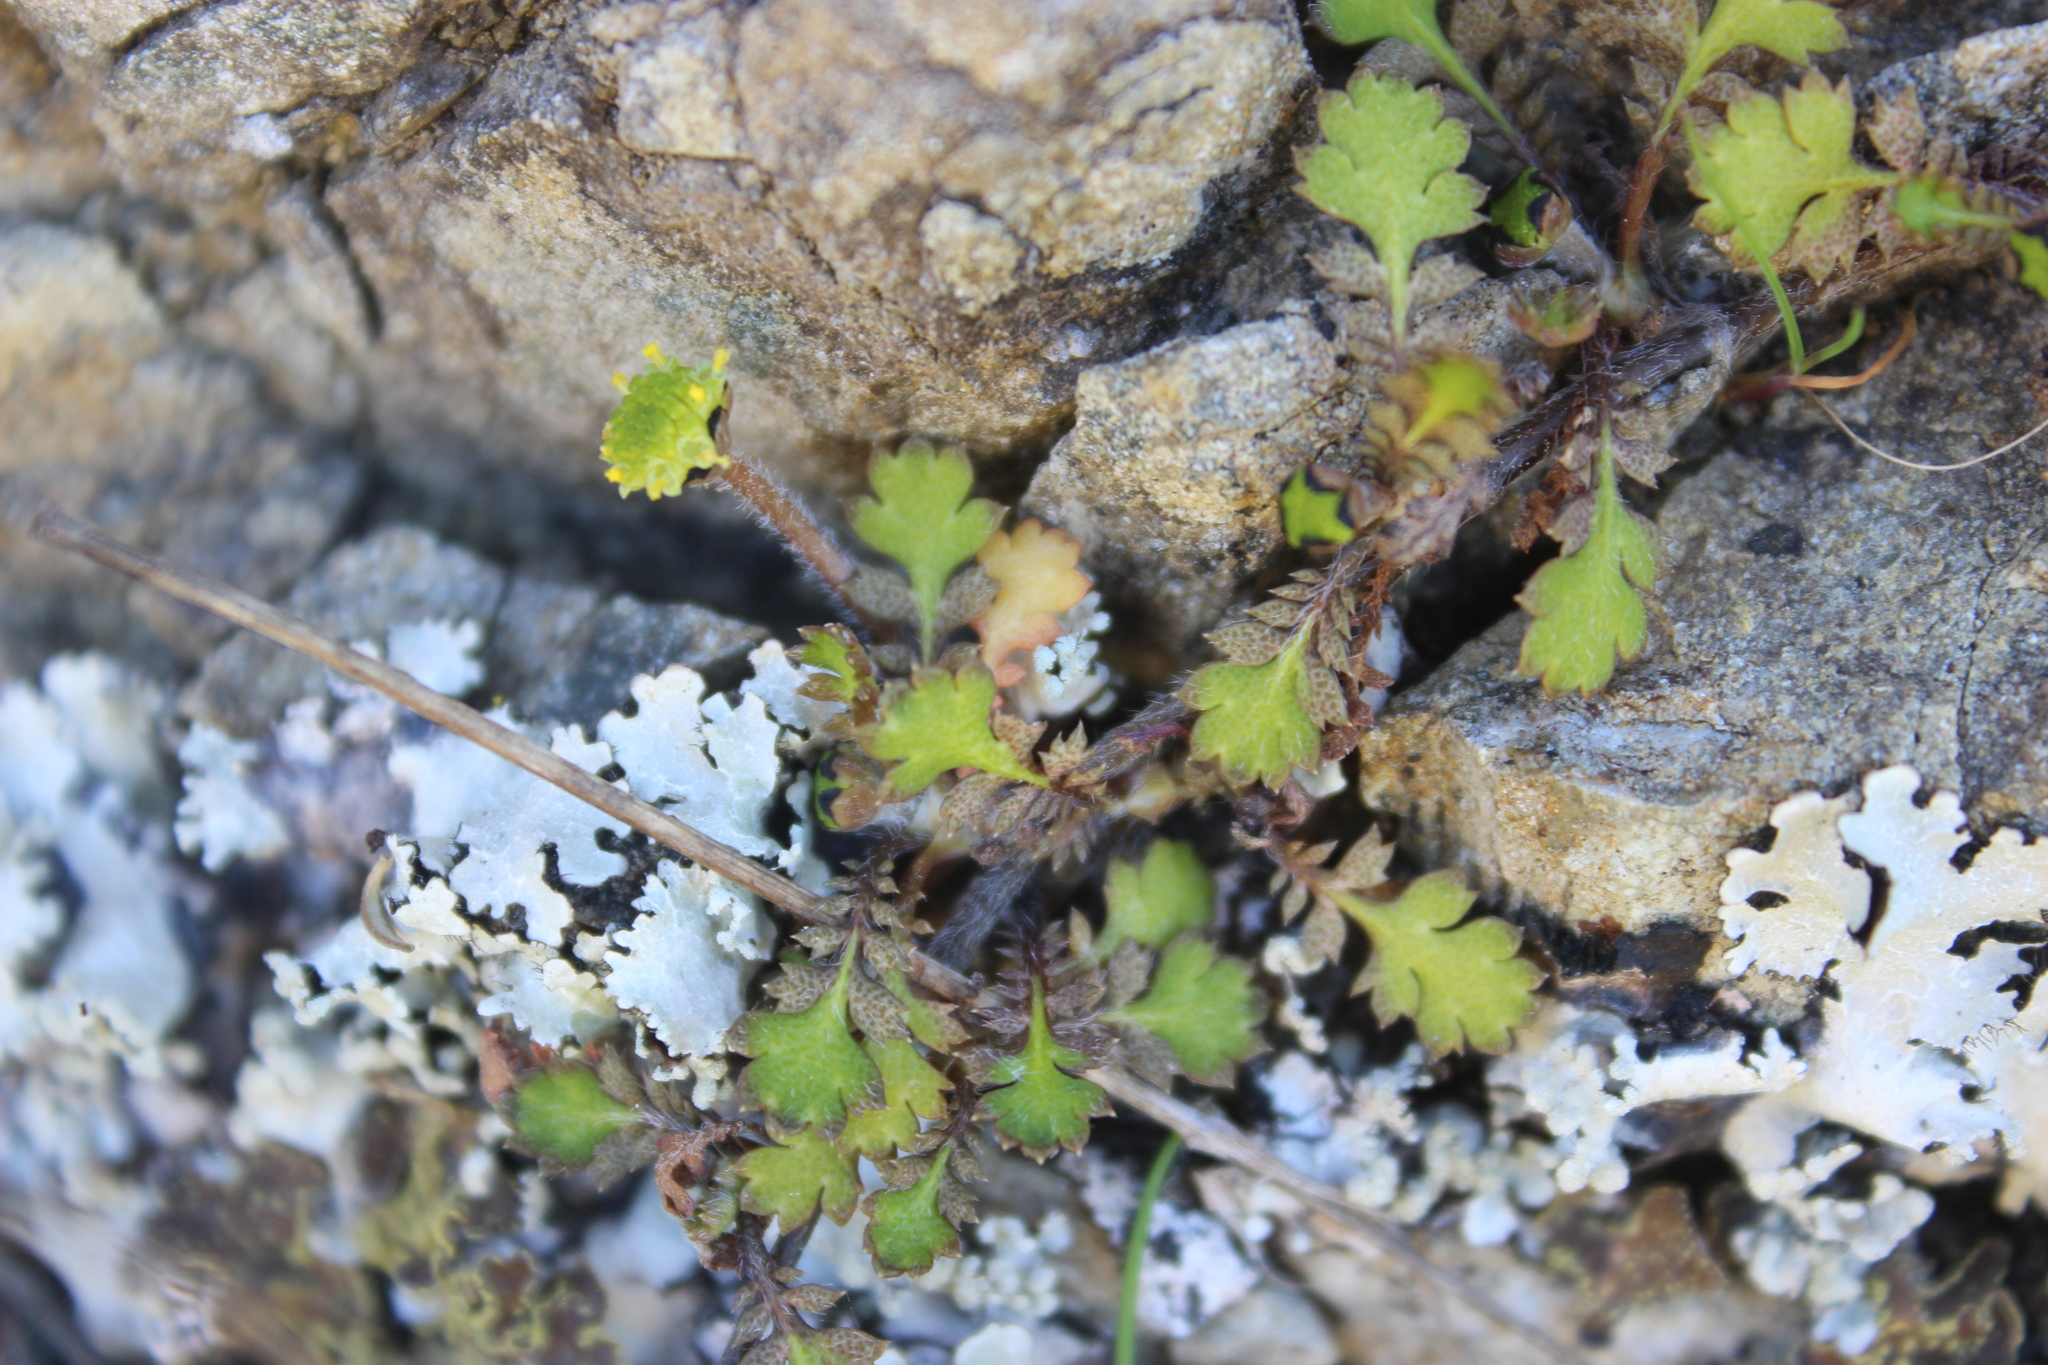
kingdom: Plantae
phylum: Tracheophyta
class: Magnoliopsida
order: Asterales
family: Asteraceae
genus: Leptinella
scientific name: Leptinella squalida
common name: New zealand brass-buttons
